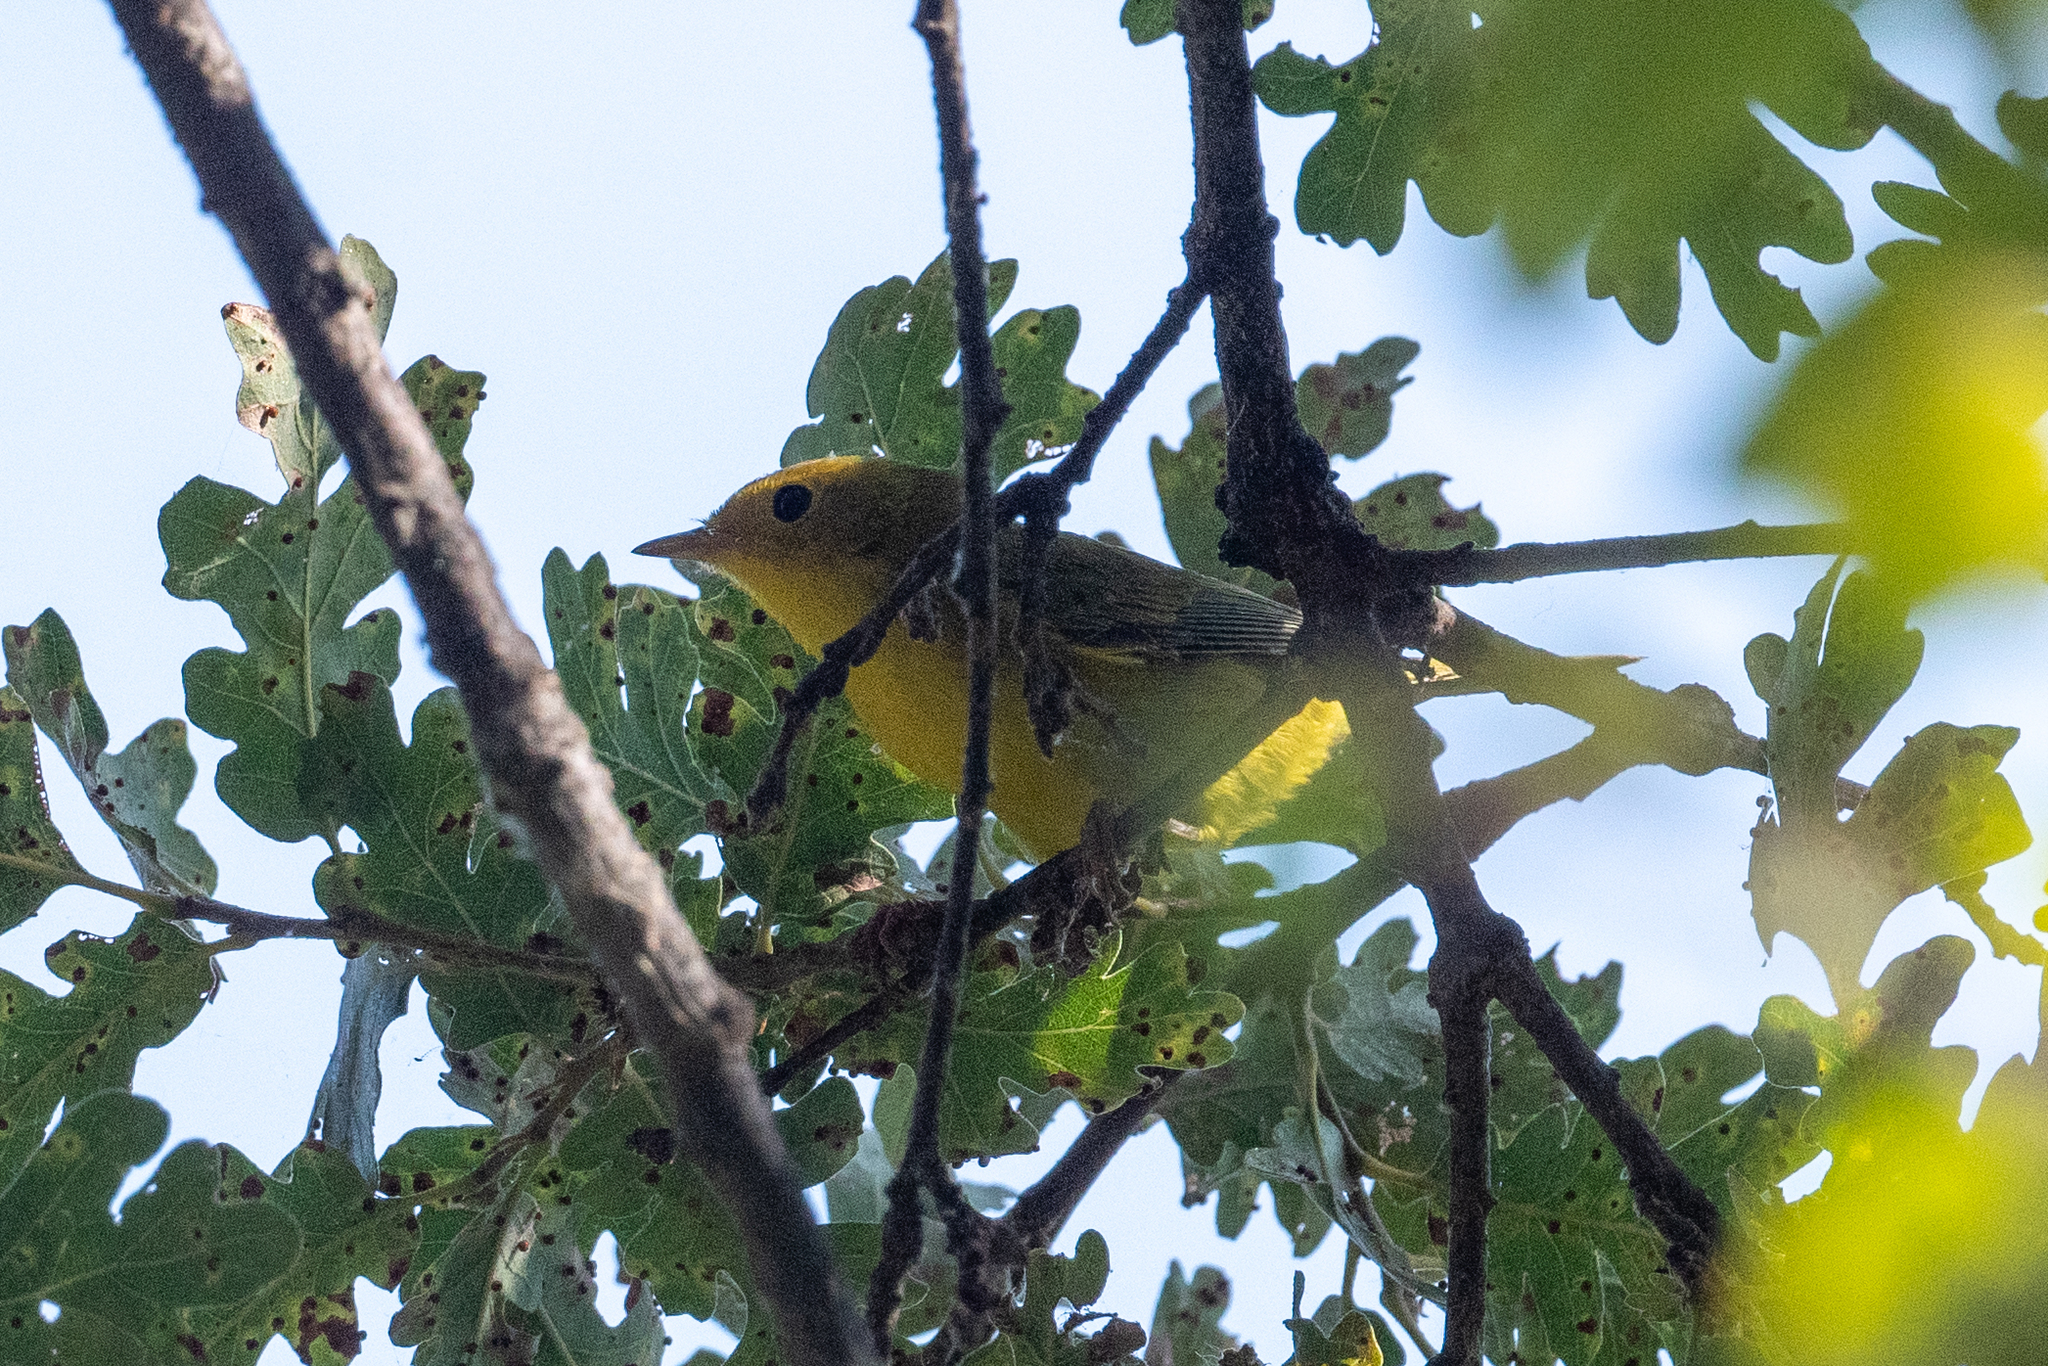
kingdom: Animalia
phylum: Chordata
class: Aves
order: Passeriformes
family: Parulidae
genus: Cardellina
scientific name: Cardellina pusilla
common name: Wilson's warbler
